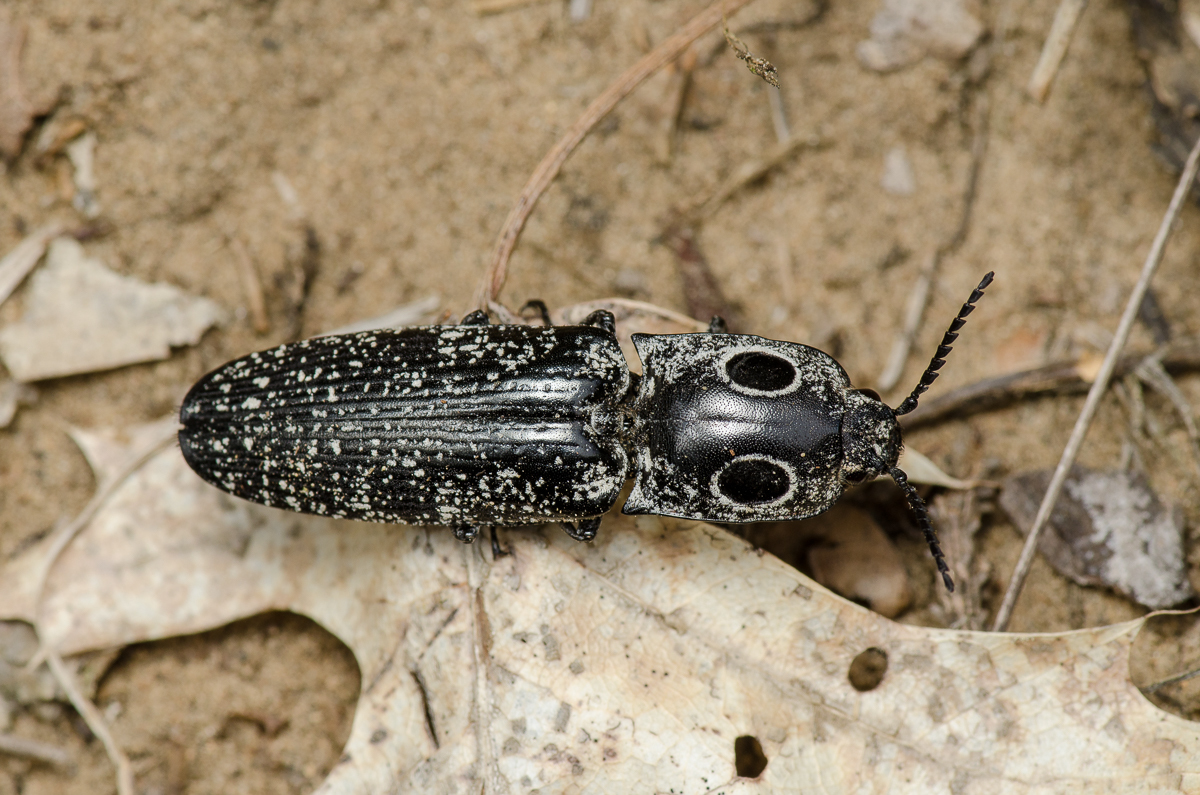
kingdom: Animalia
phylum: Arthropoda
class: Insecta
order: Coleoptera
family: Elateridae
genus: Alaus
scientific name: Alaus oculatus
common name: Eastern eyed click beetle
